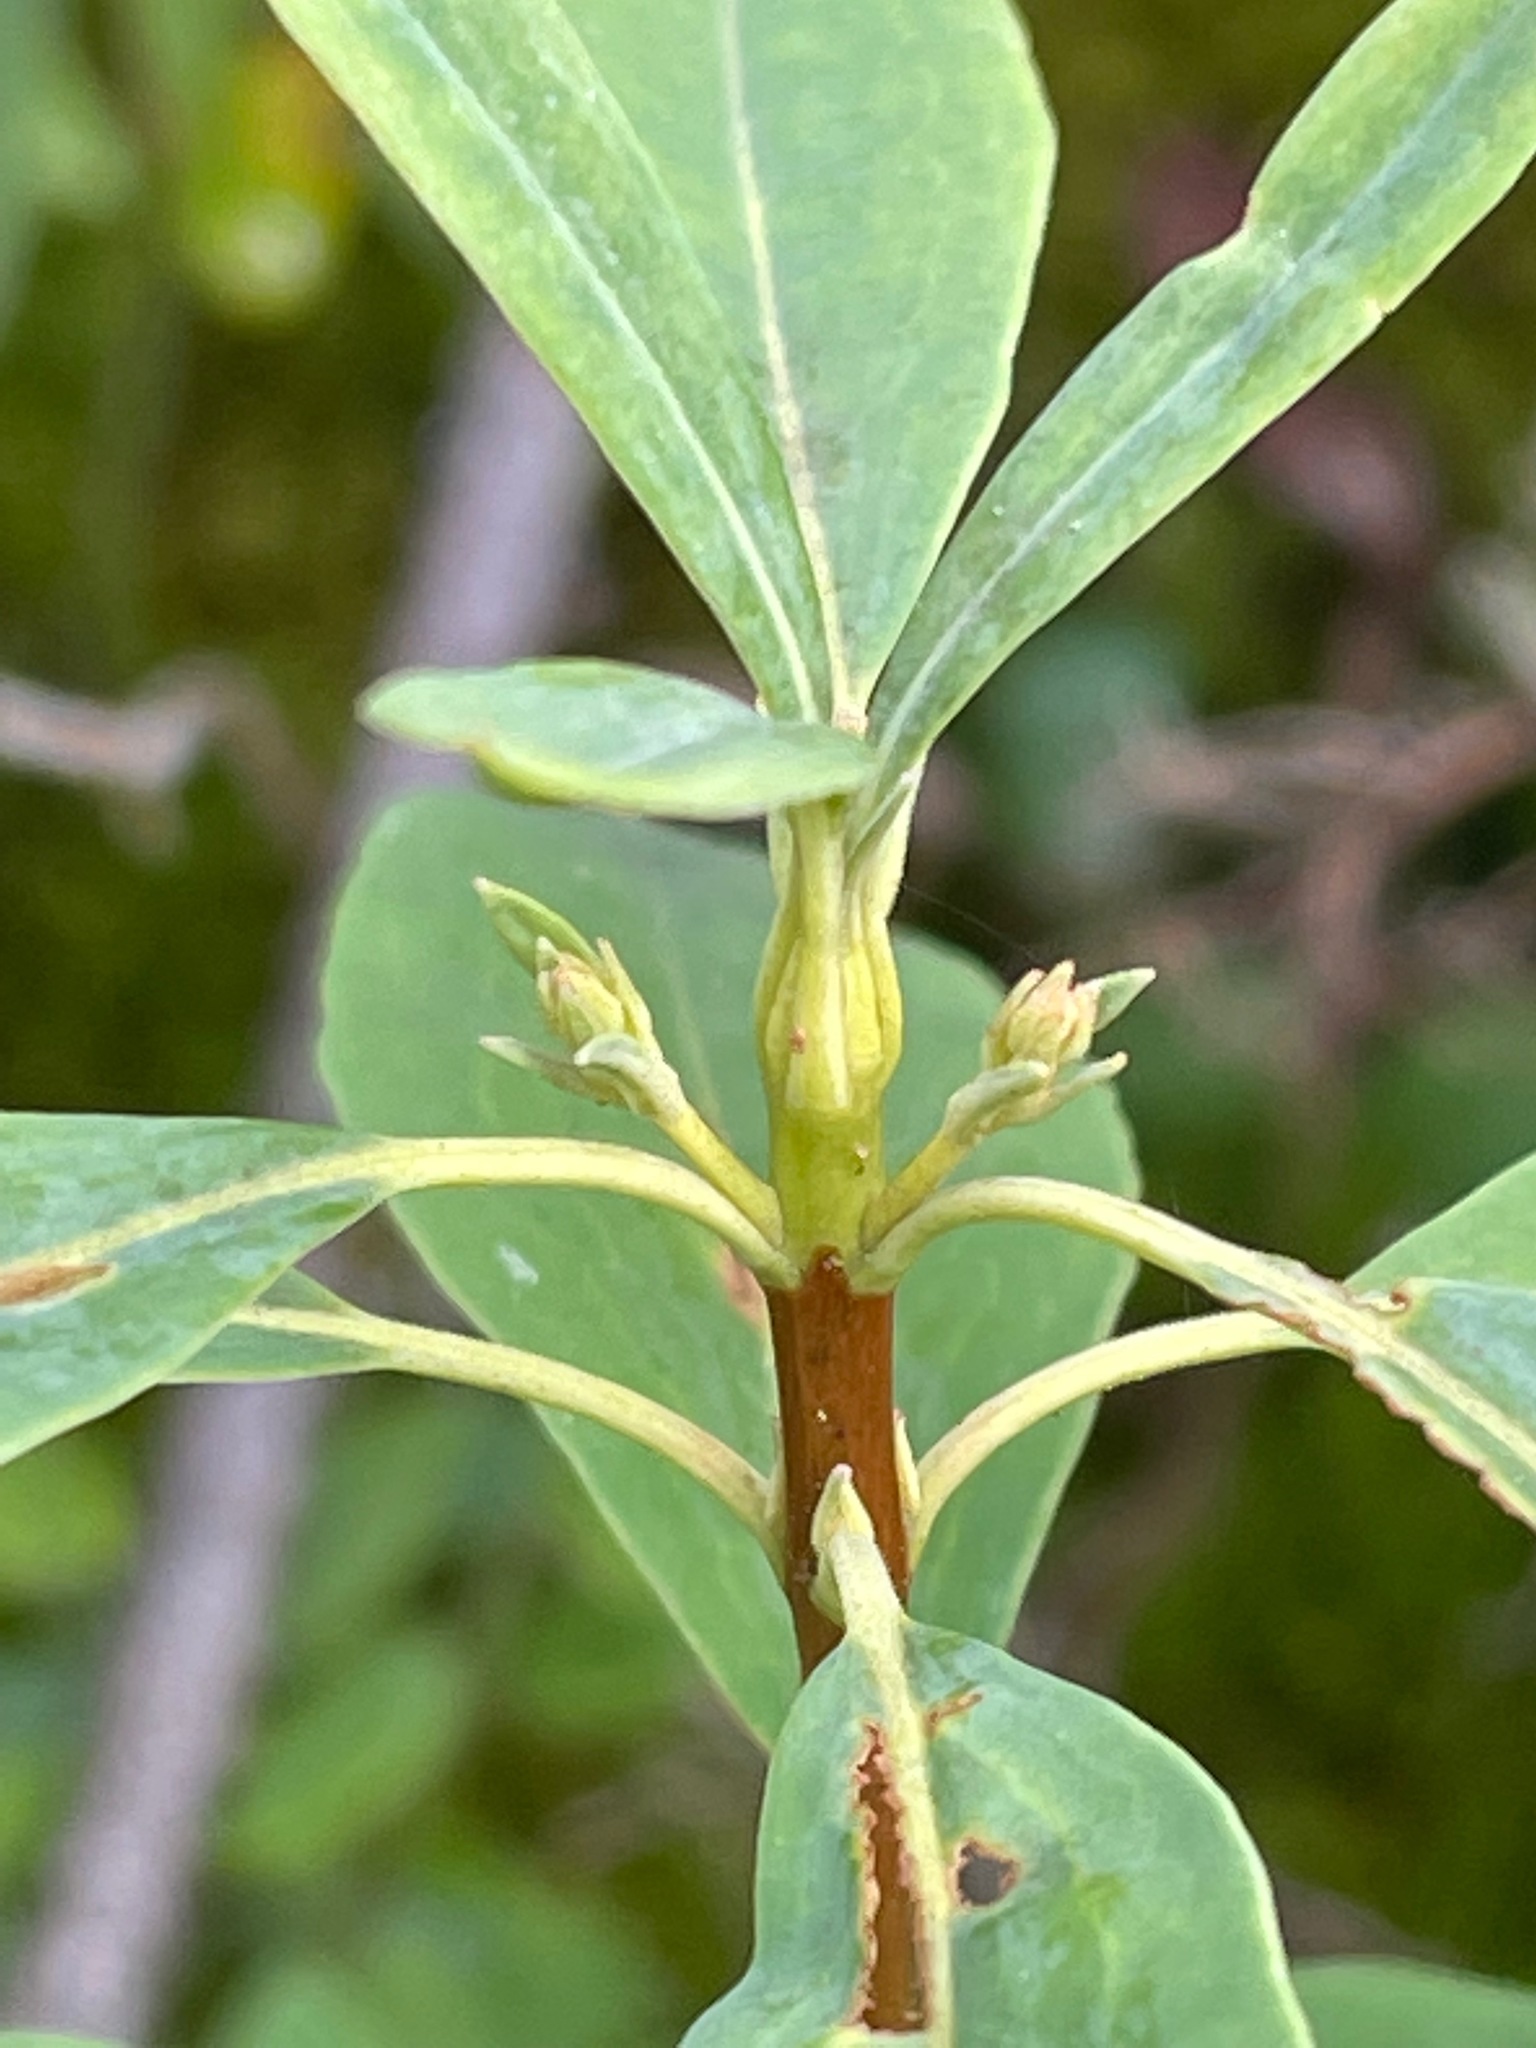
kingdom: Plantae
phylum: Tracheophyta
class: Magnoliopsida
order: Ericales
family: Ericaceae
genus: Kalmia
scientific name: Kalmia angustifolia
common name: Sheep-laurel
